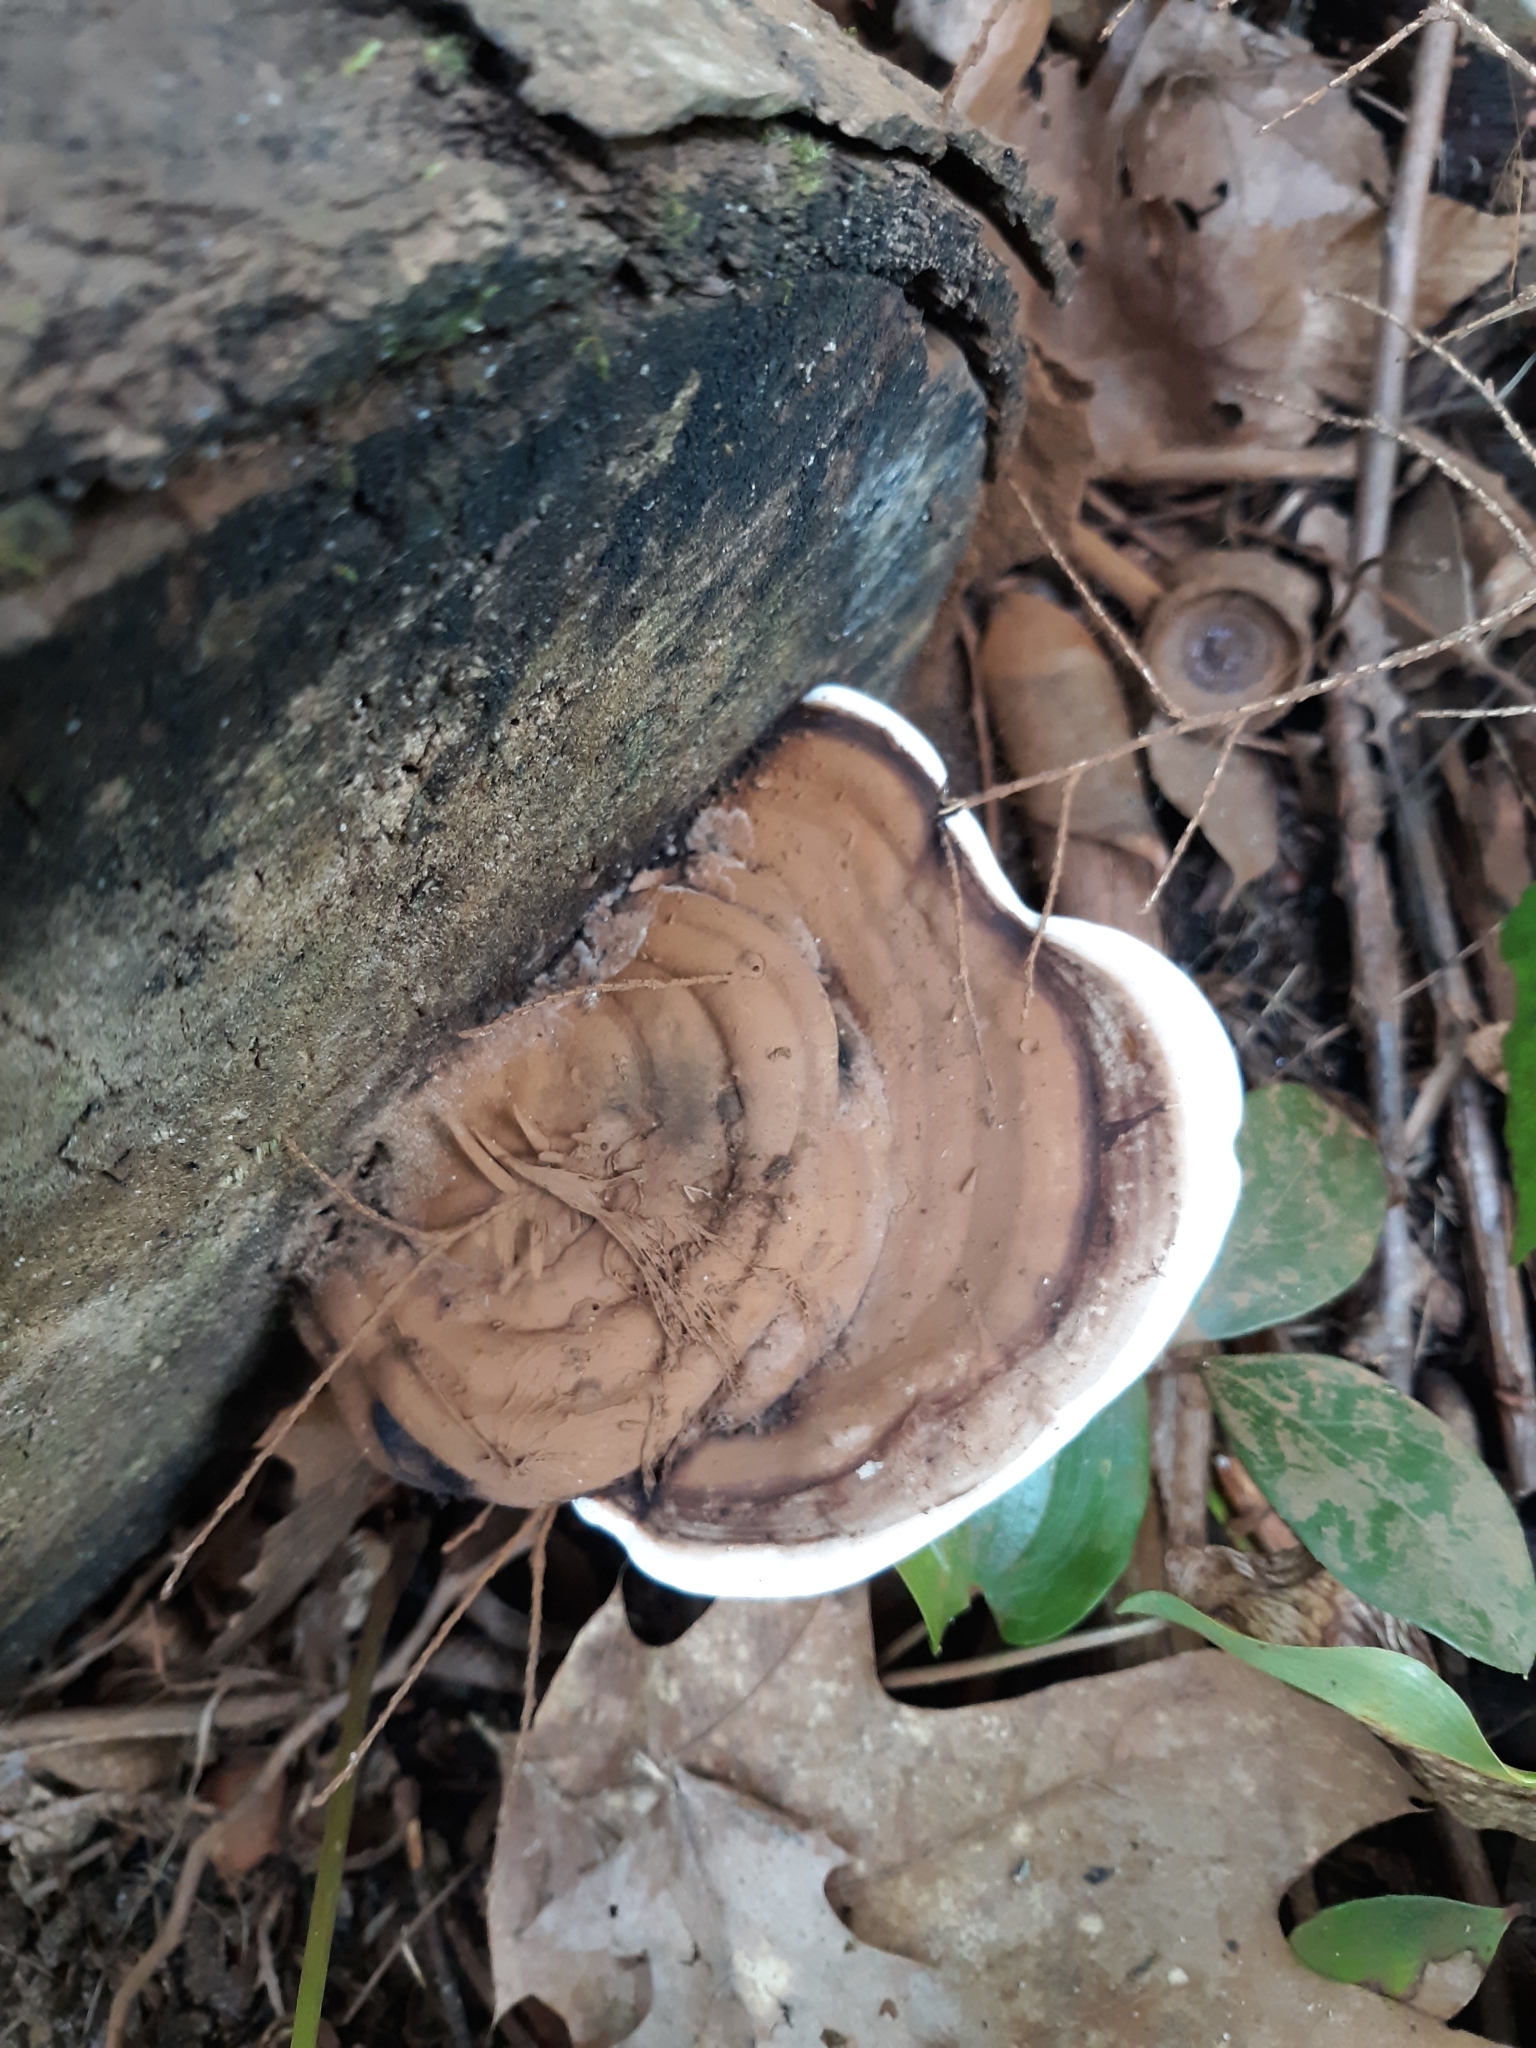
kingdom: Fungi
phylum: Basidiomycota
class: Agaricomycetes
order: Polyporales
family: Polyporaceae
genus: Ganoderma
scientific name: Ganoderma applanatum
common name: Artist's bracket
